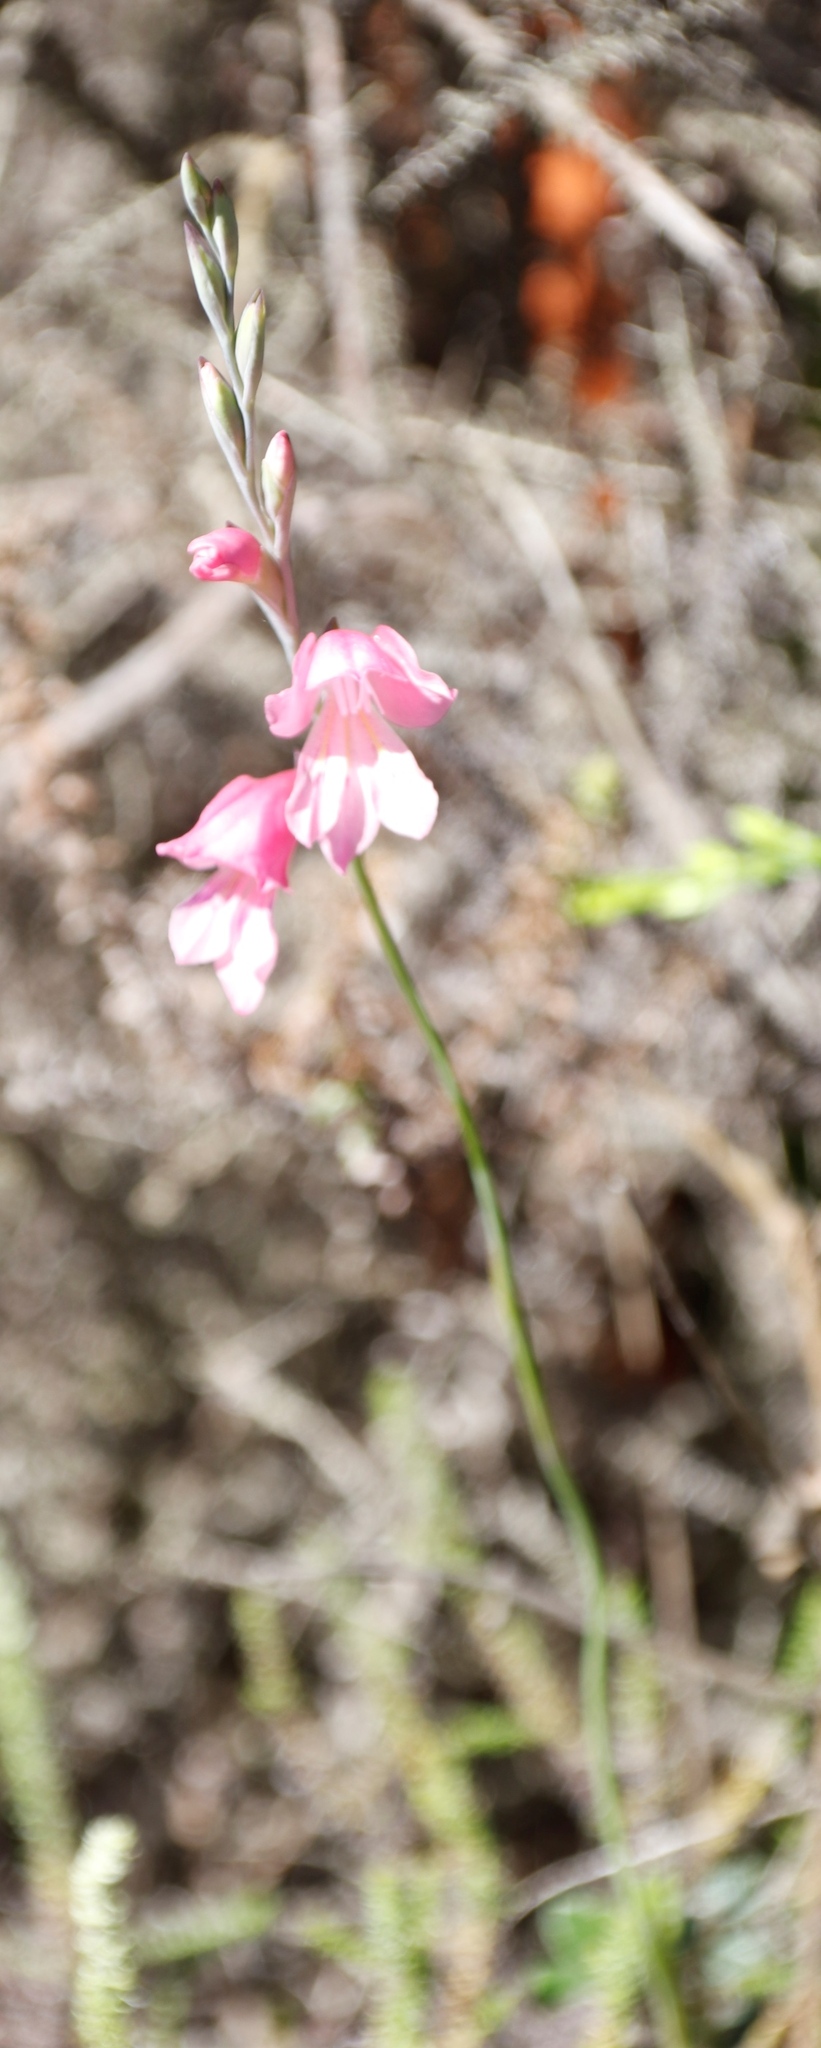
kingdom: Plantae
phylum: Tracheophyta
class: Liliopsida
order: Asparagales
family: Iridaceae
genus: Gladiolus
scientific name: Gladiolus brevifolius
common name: March pypie
